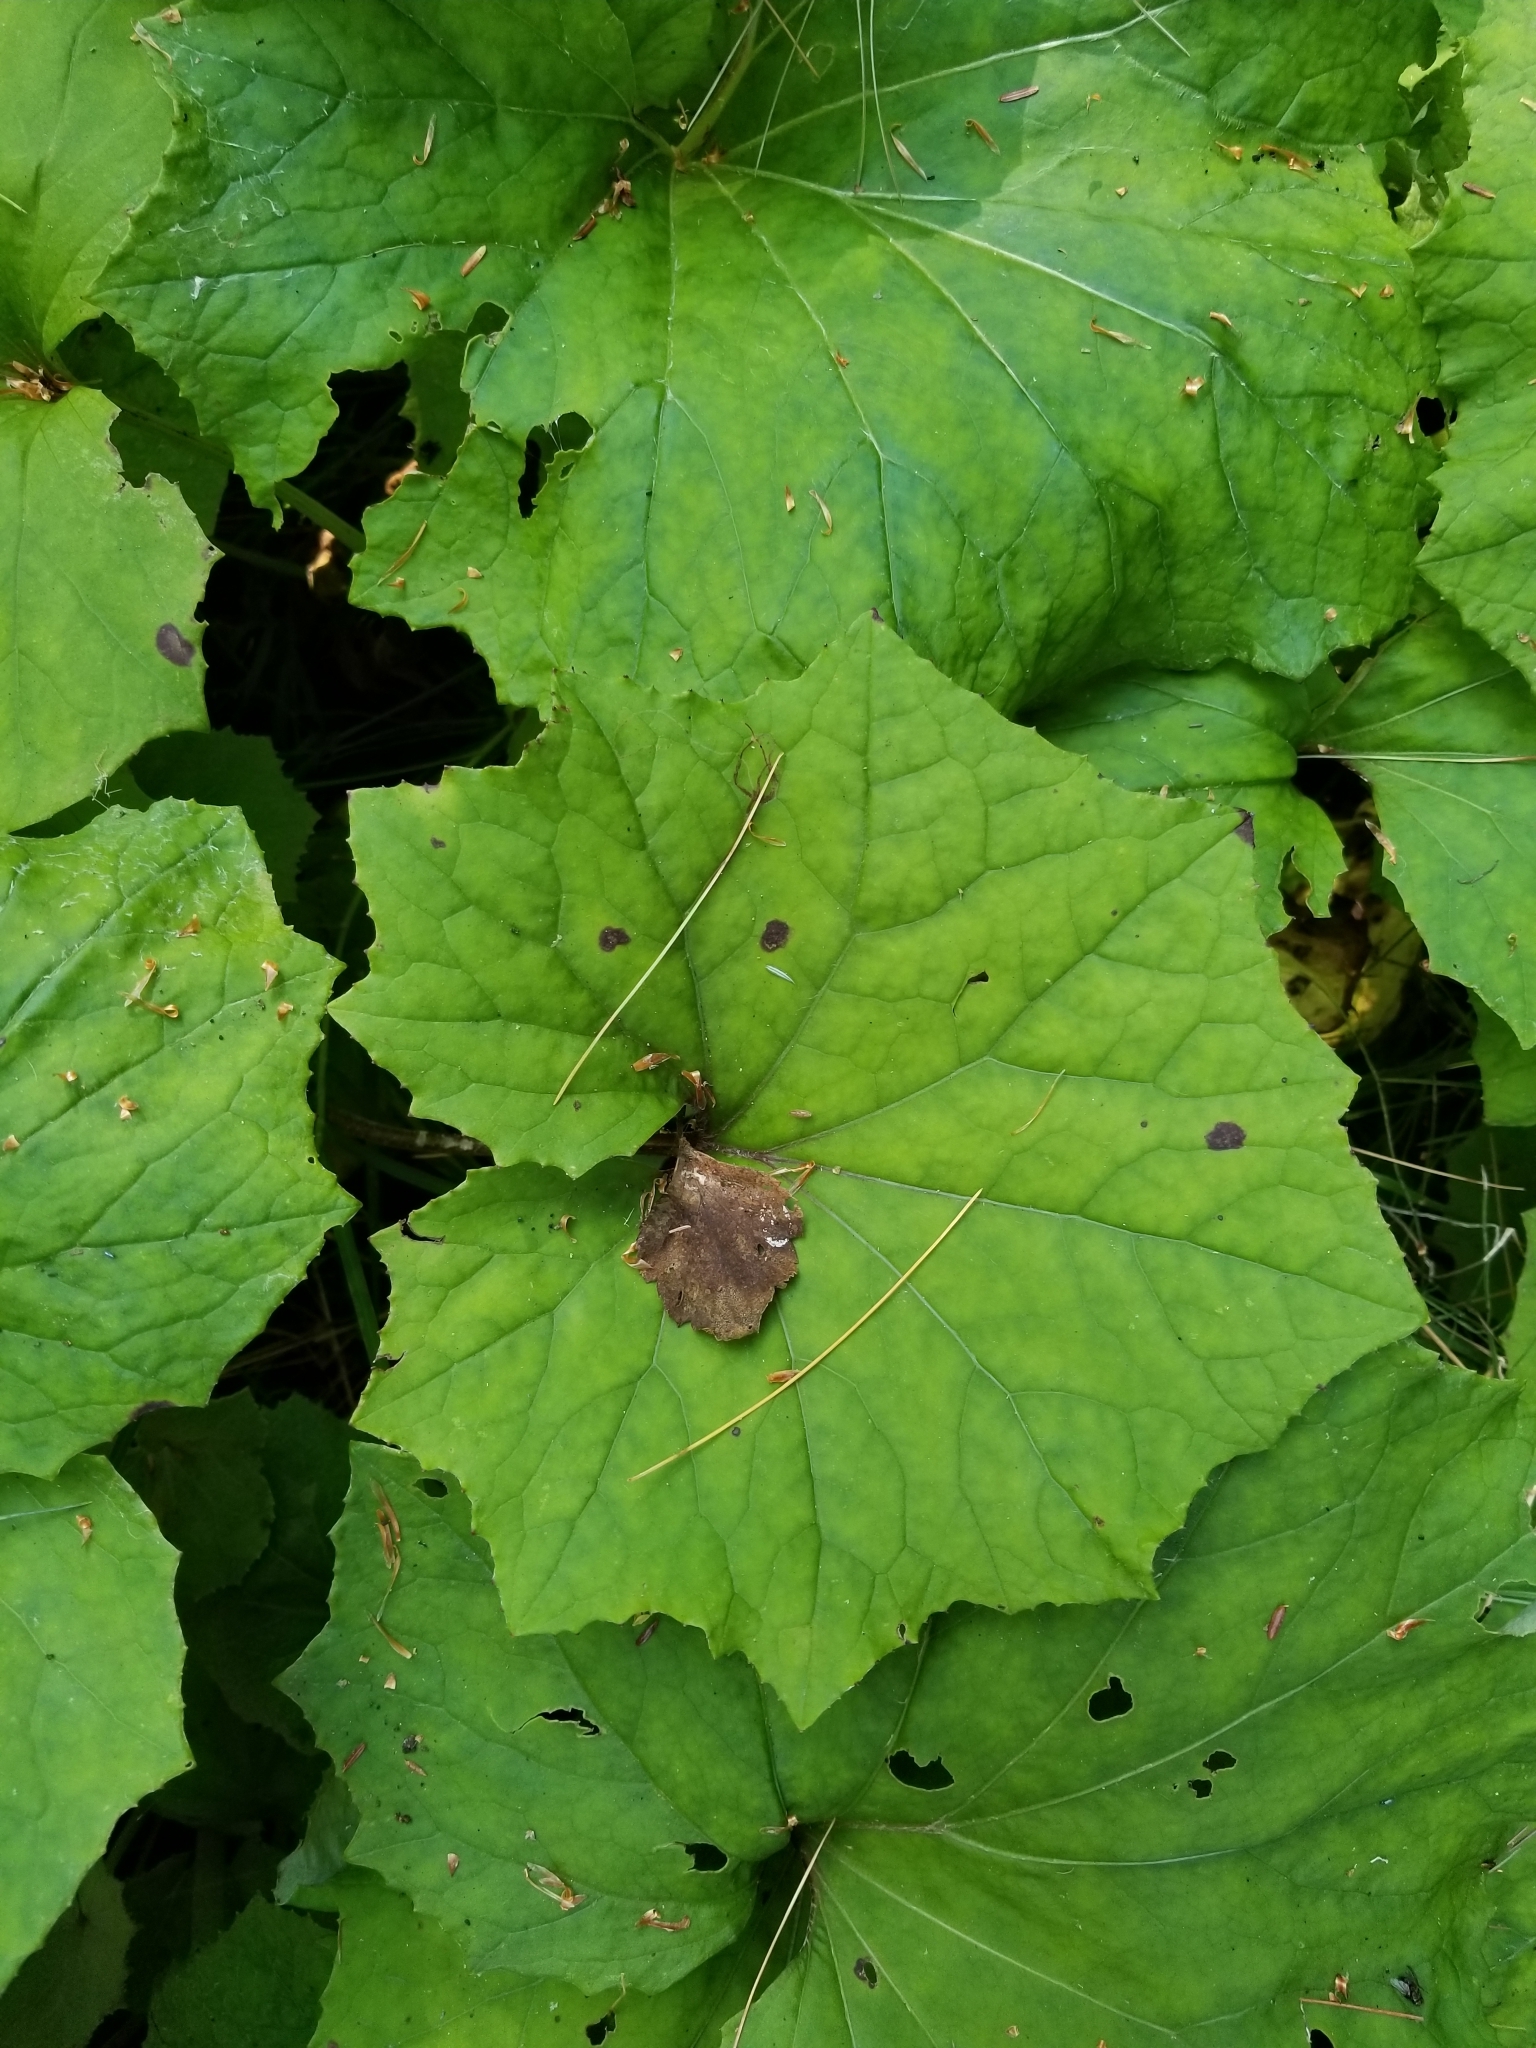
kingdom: Plantae
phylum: Tracheophyta
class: Magnoliopsida
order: Asterales
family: Asteraceae
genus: Tussilago
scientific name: Tussilago farfara
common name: Coltsfoot
